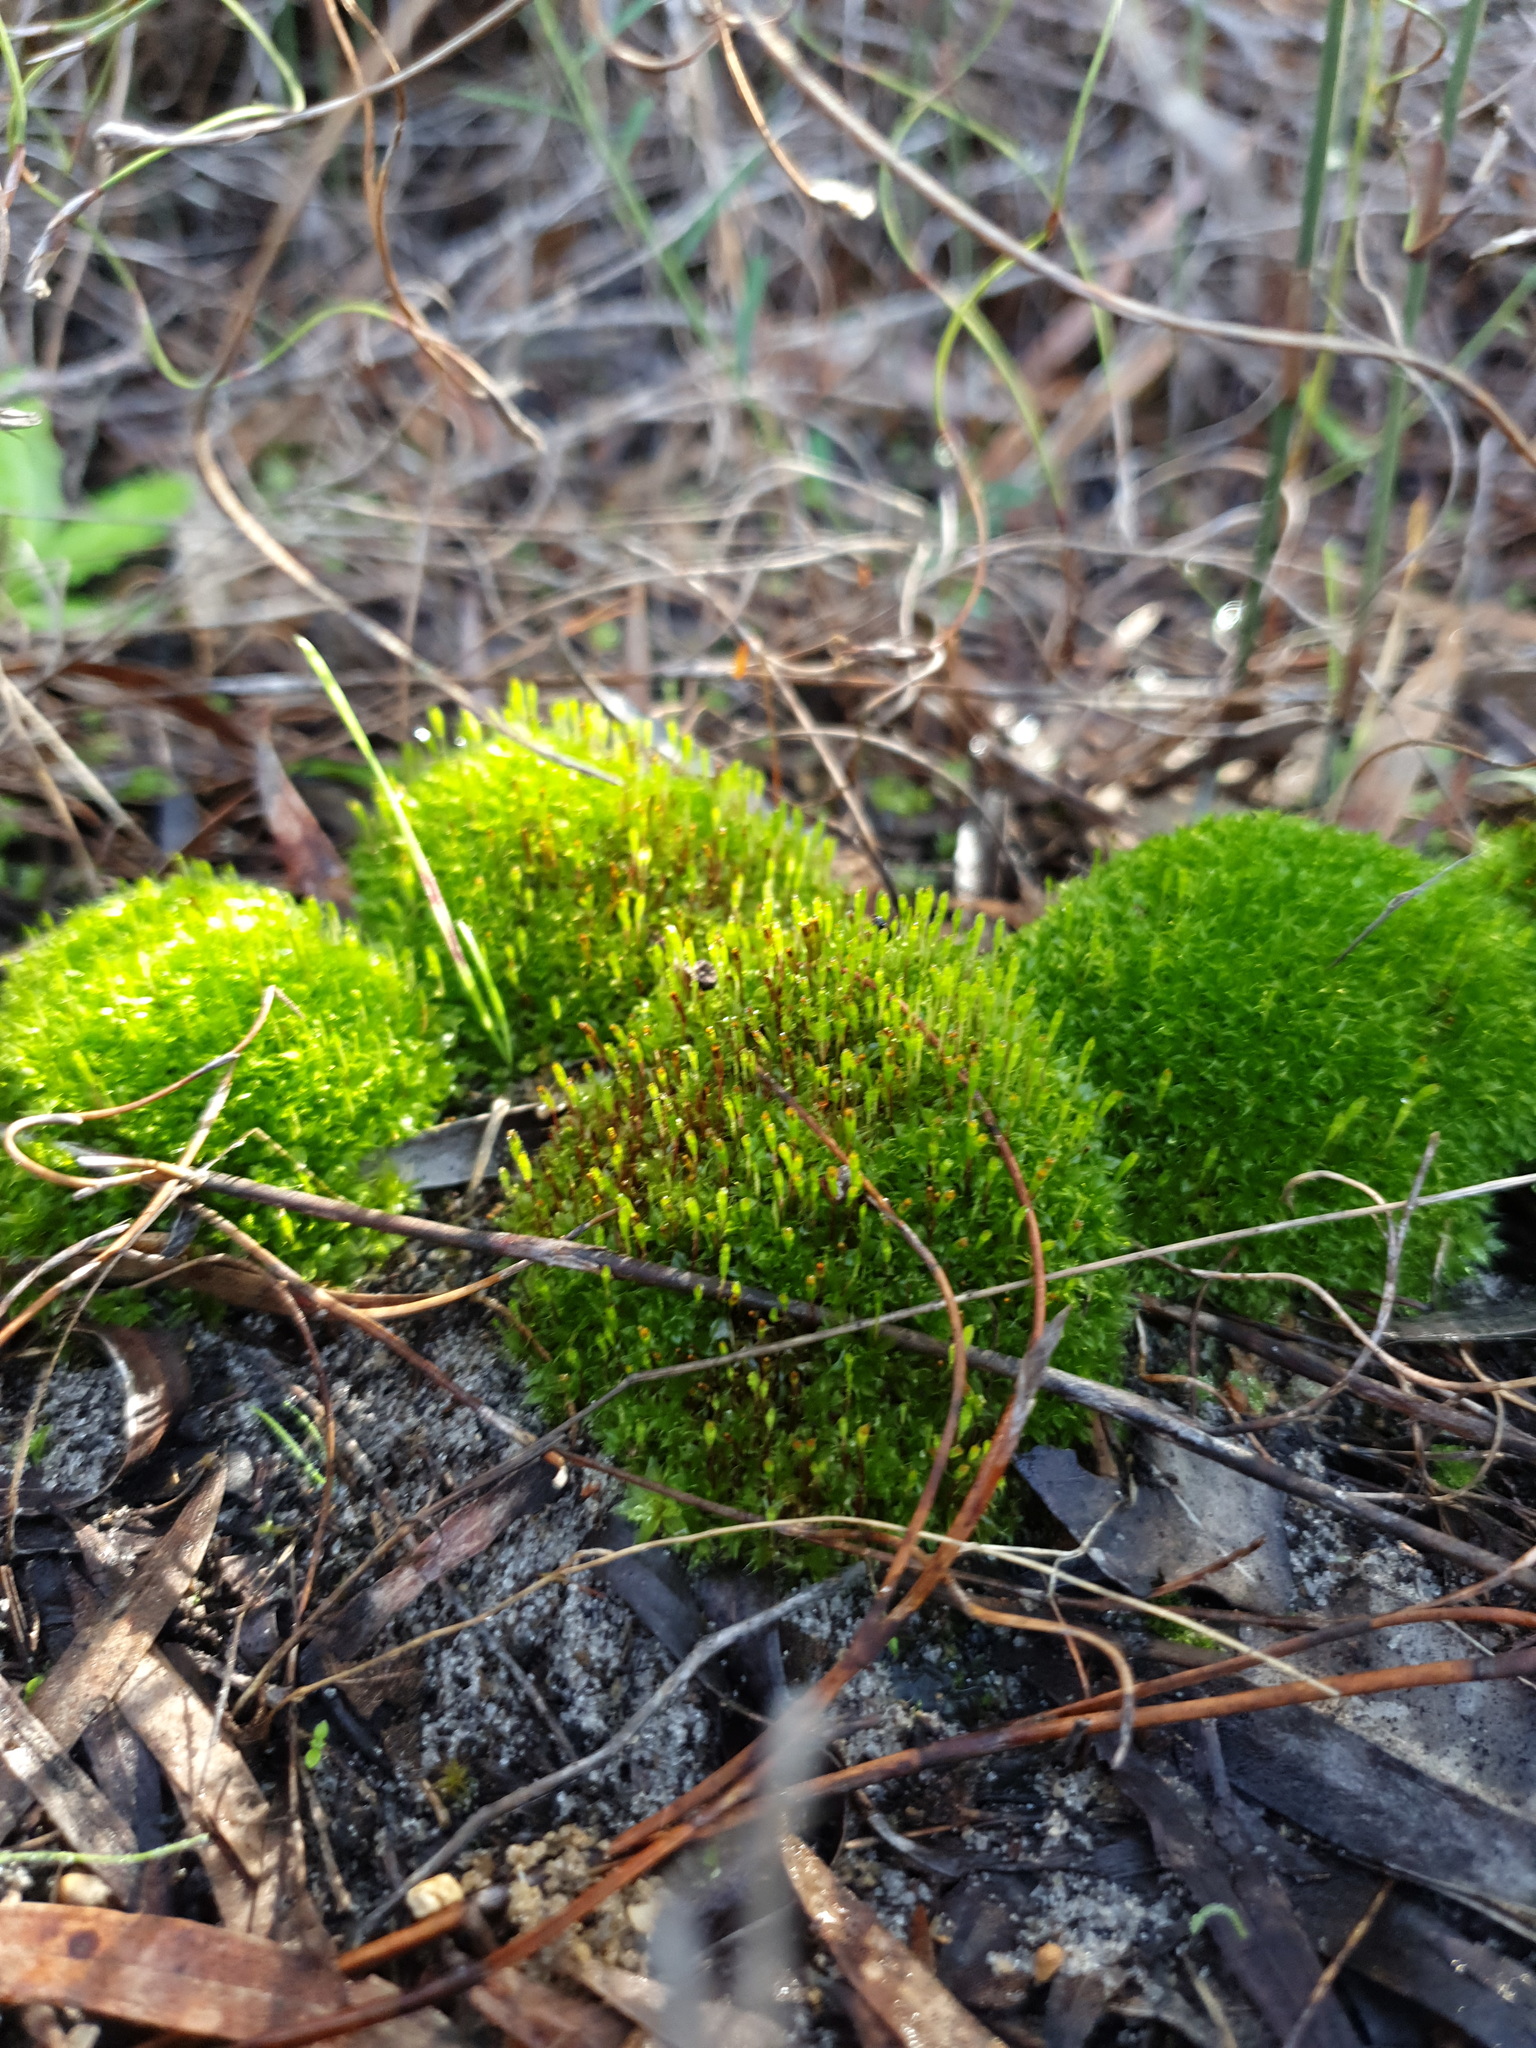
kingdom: Plantae
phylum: Bryophyta
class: Bryopsida
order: Splachnales
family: Splachnaceae
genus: Tayloria
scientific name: Tayloria octoblephara
